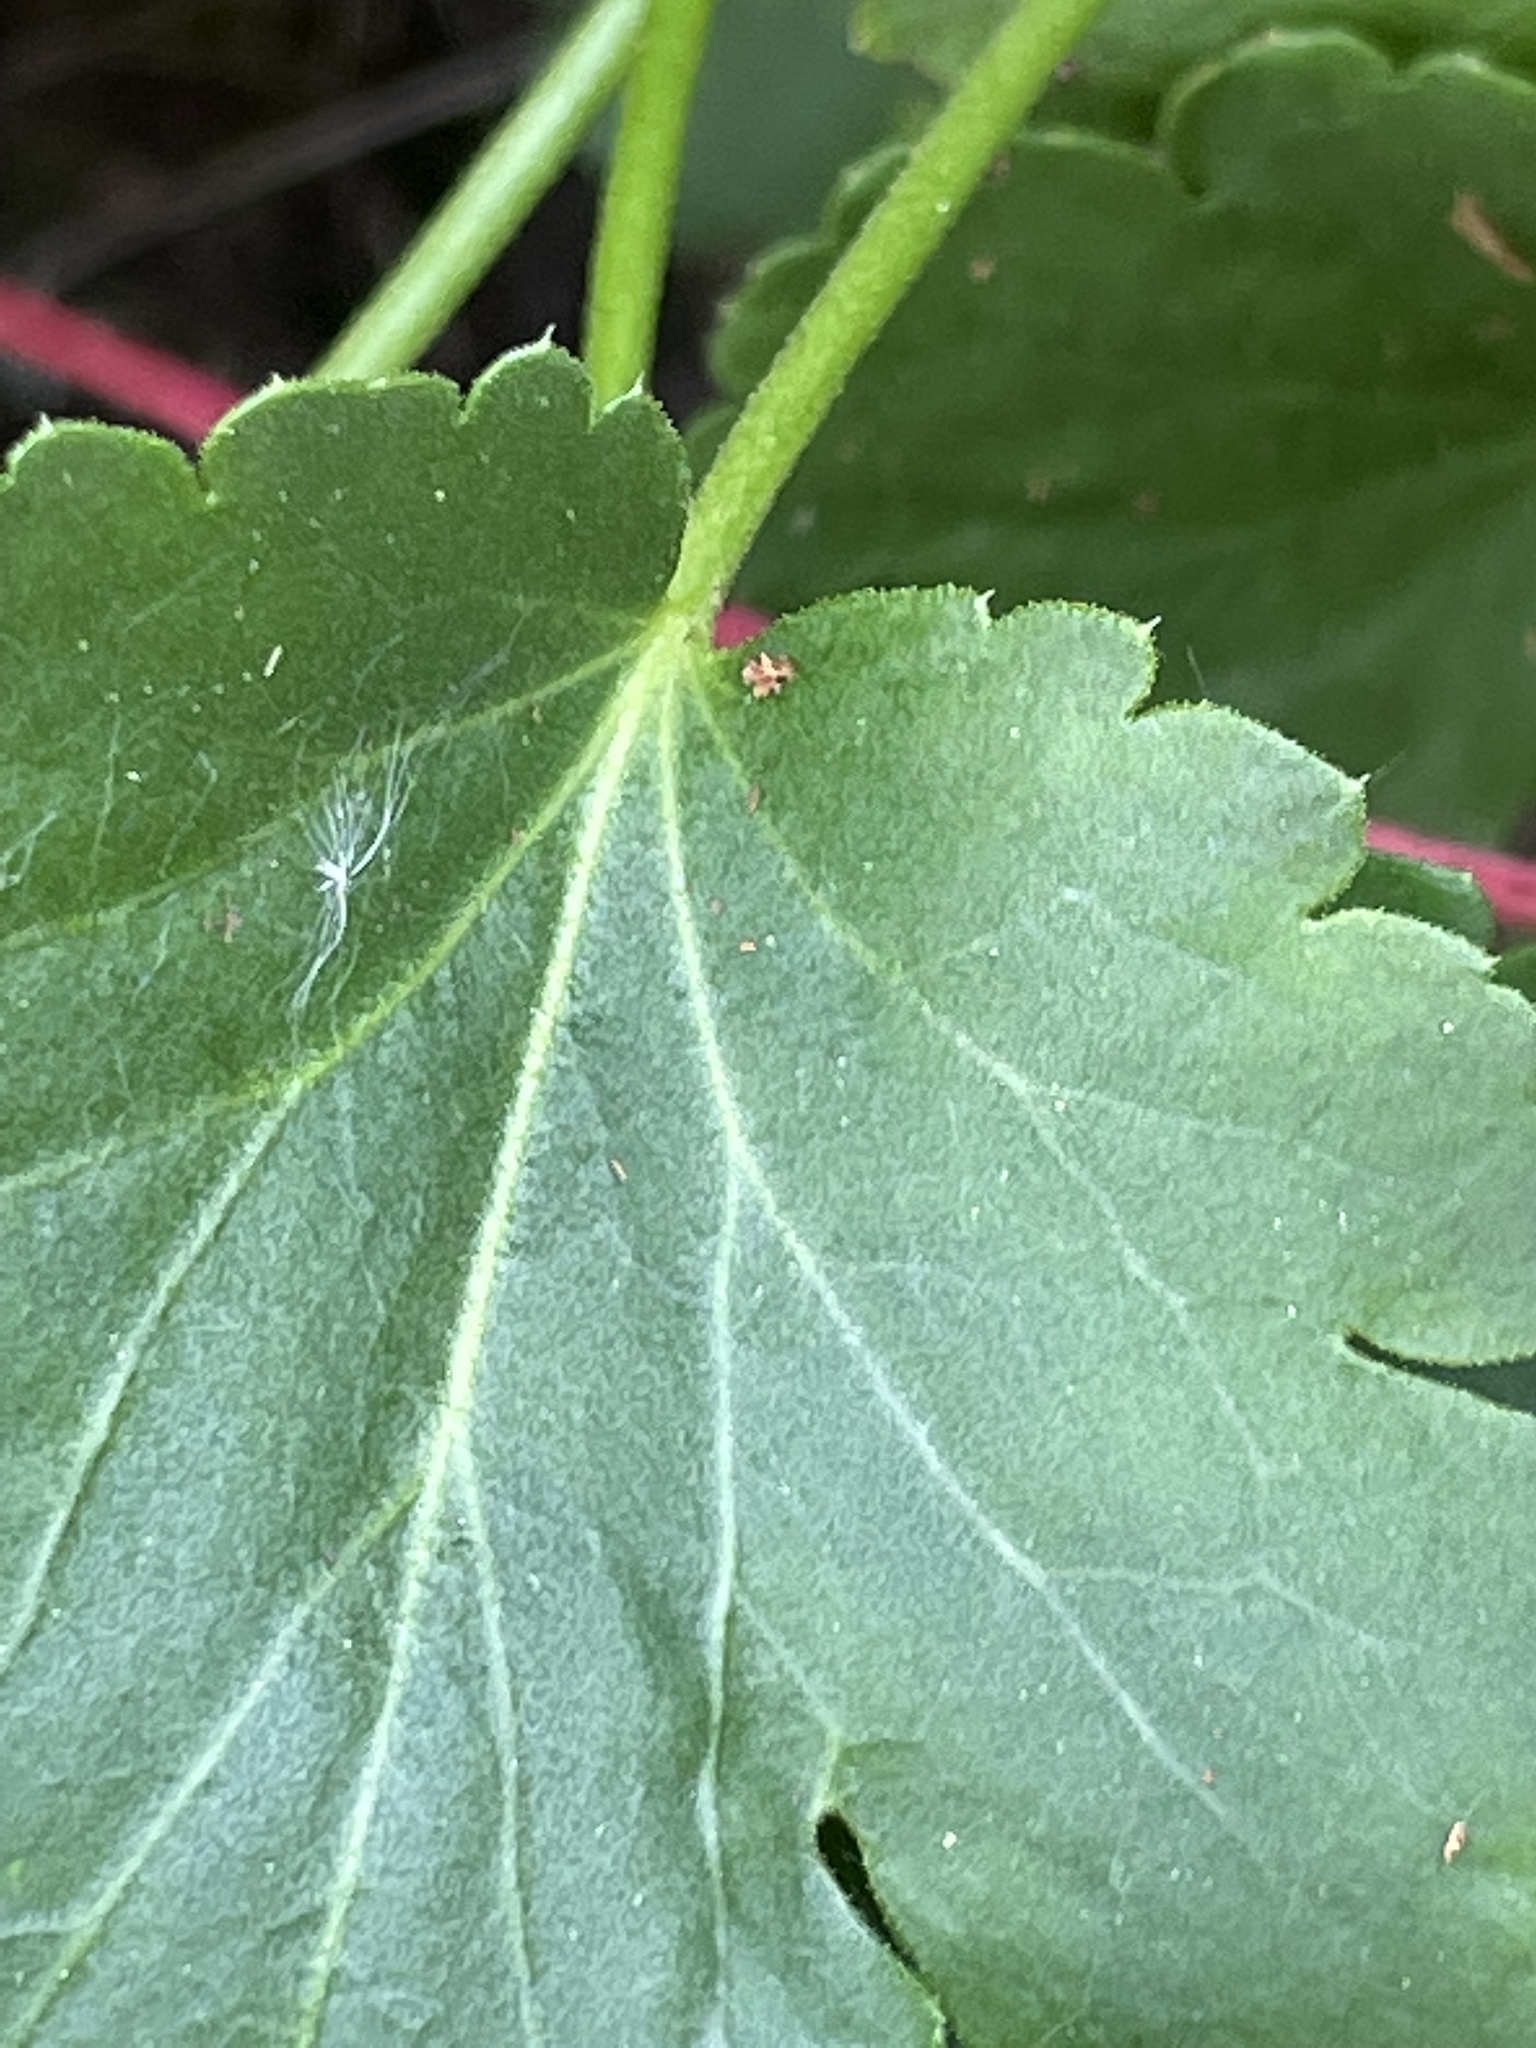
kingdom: Plantae
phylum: Tracheophyta
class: Magnoliopsida
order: Saxifragales
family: Saxifragaceae
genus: Heuchera
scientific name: Heuchera cylindrica
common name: Mat alumroot
